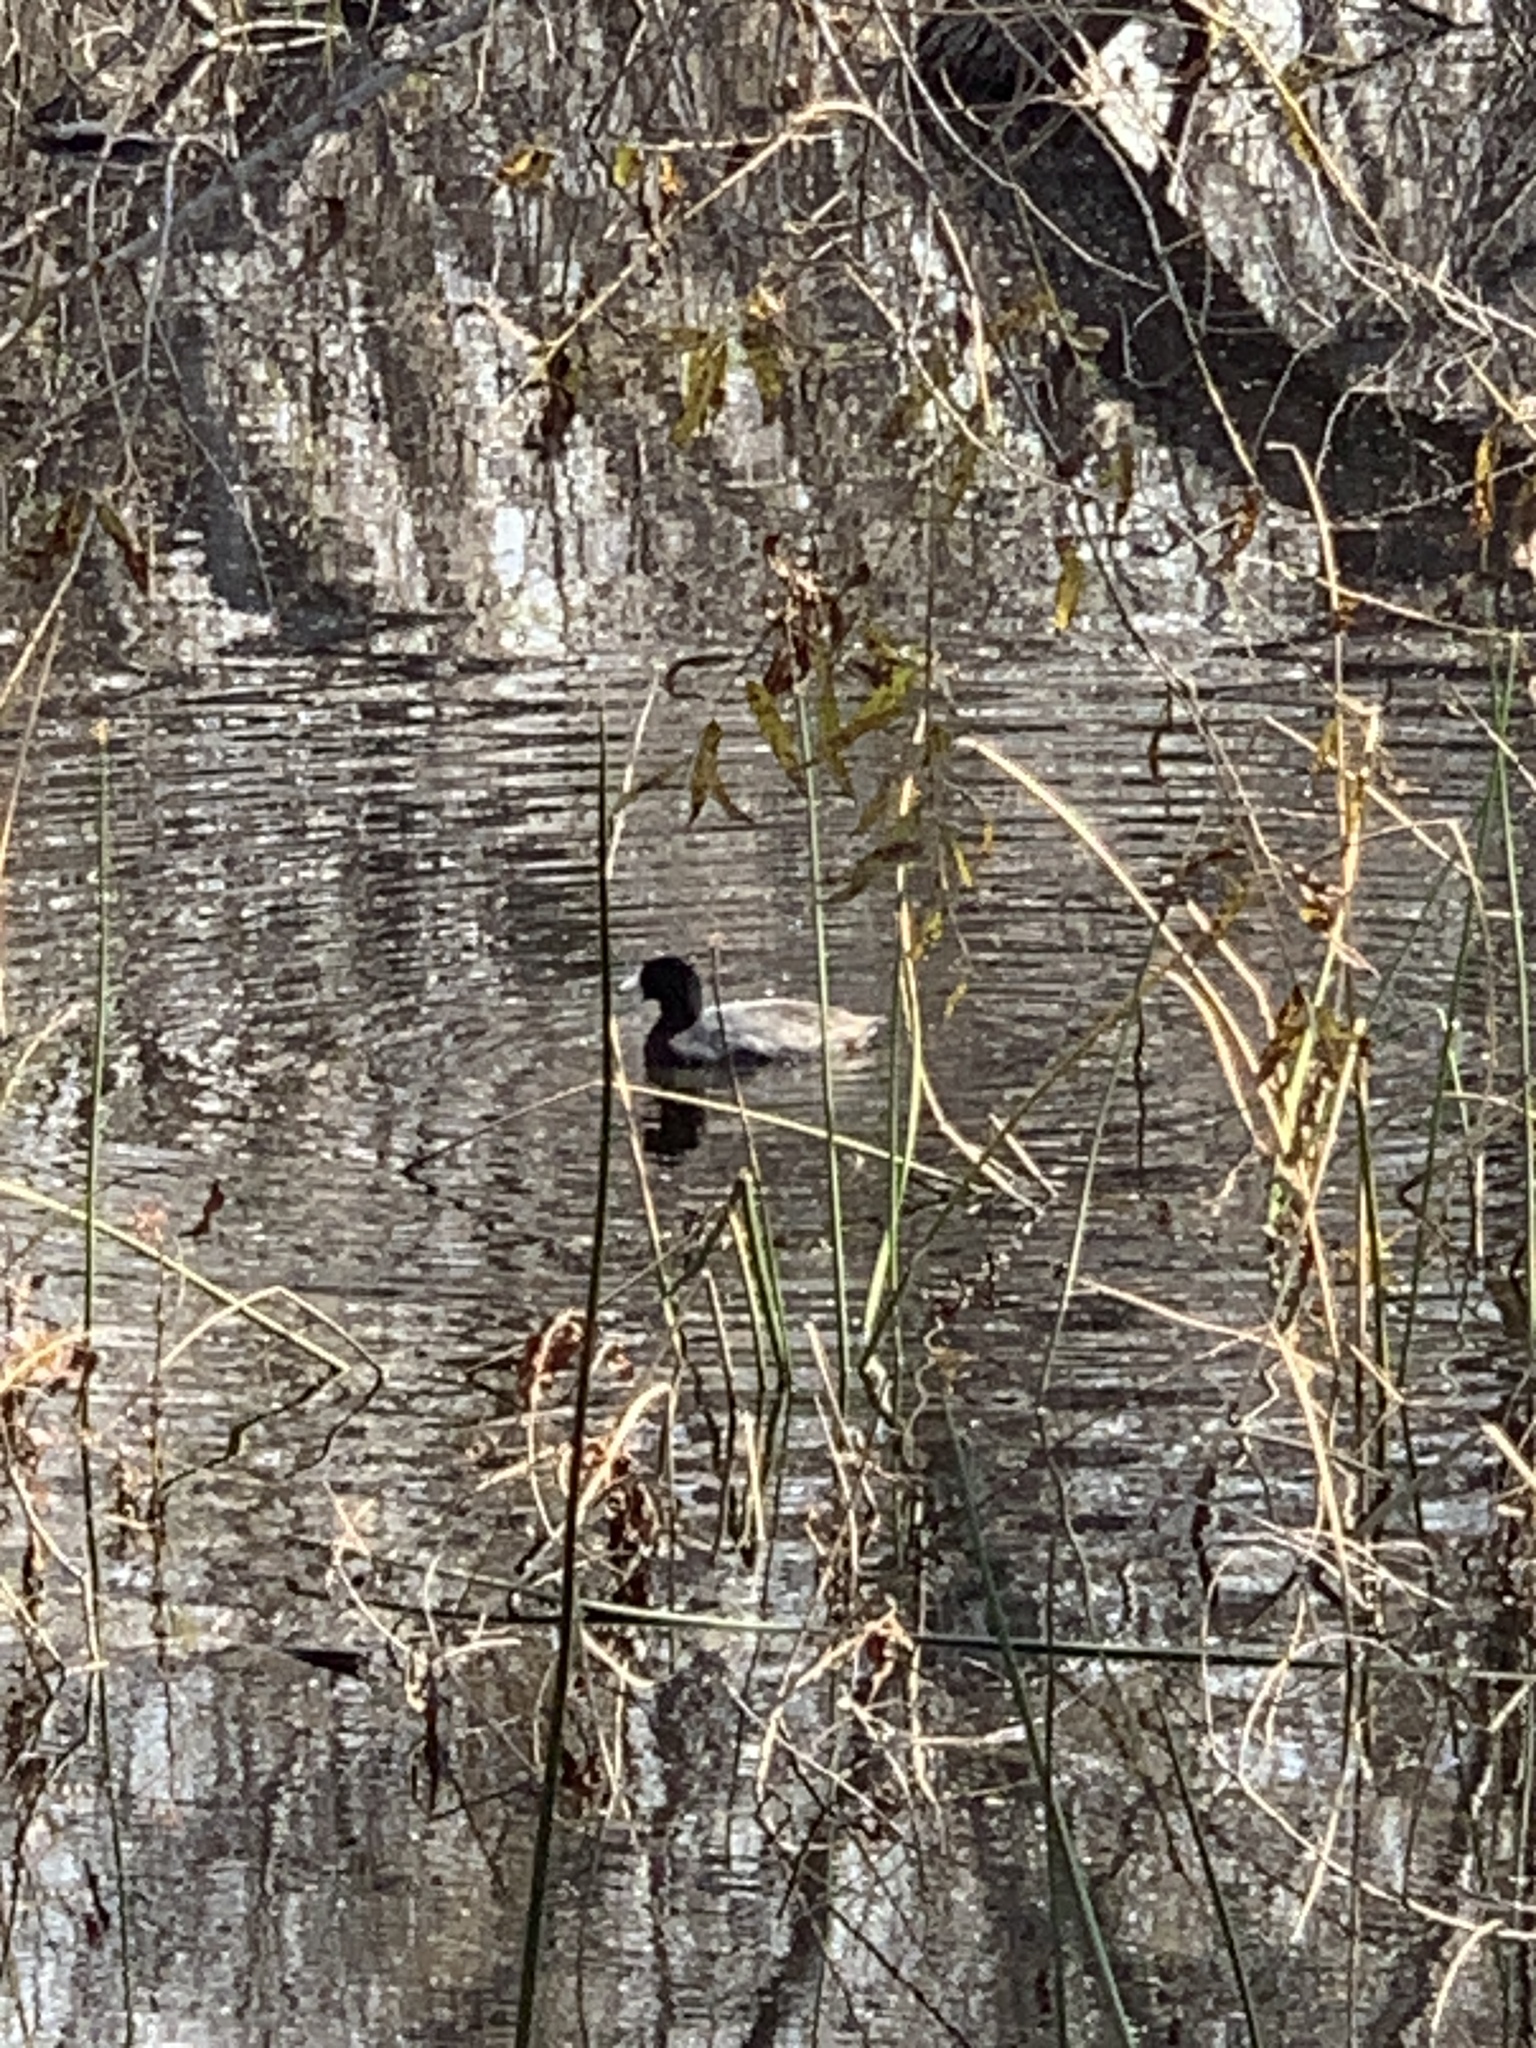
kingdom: Animalia
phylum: Chordata
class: Aves
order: Gruiformes
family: Rallidae
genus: Fulica
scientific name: Fulica americana
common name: American coot
